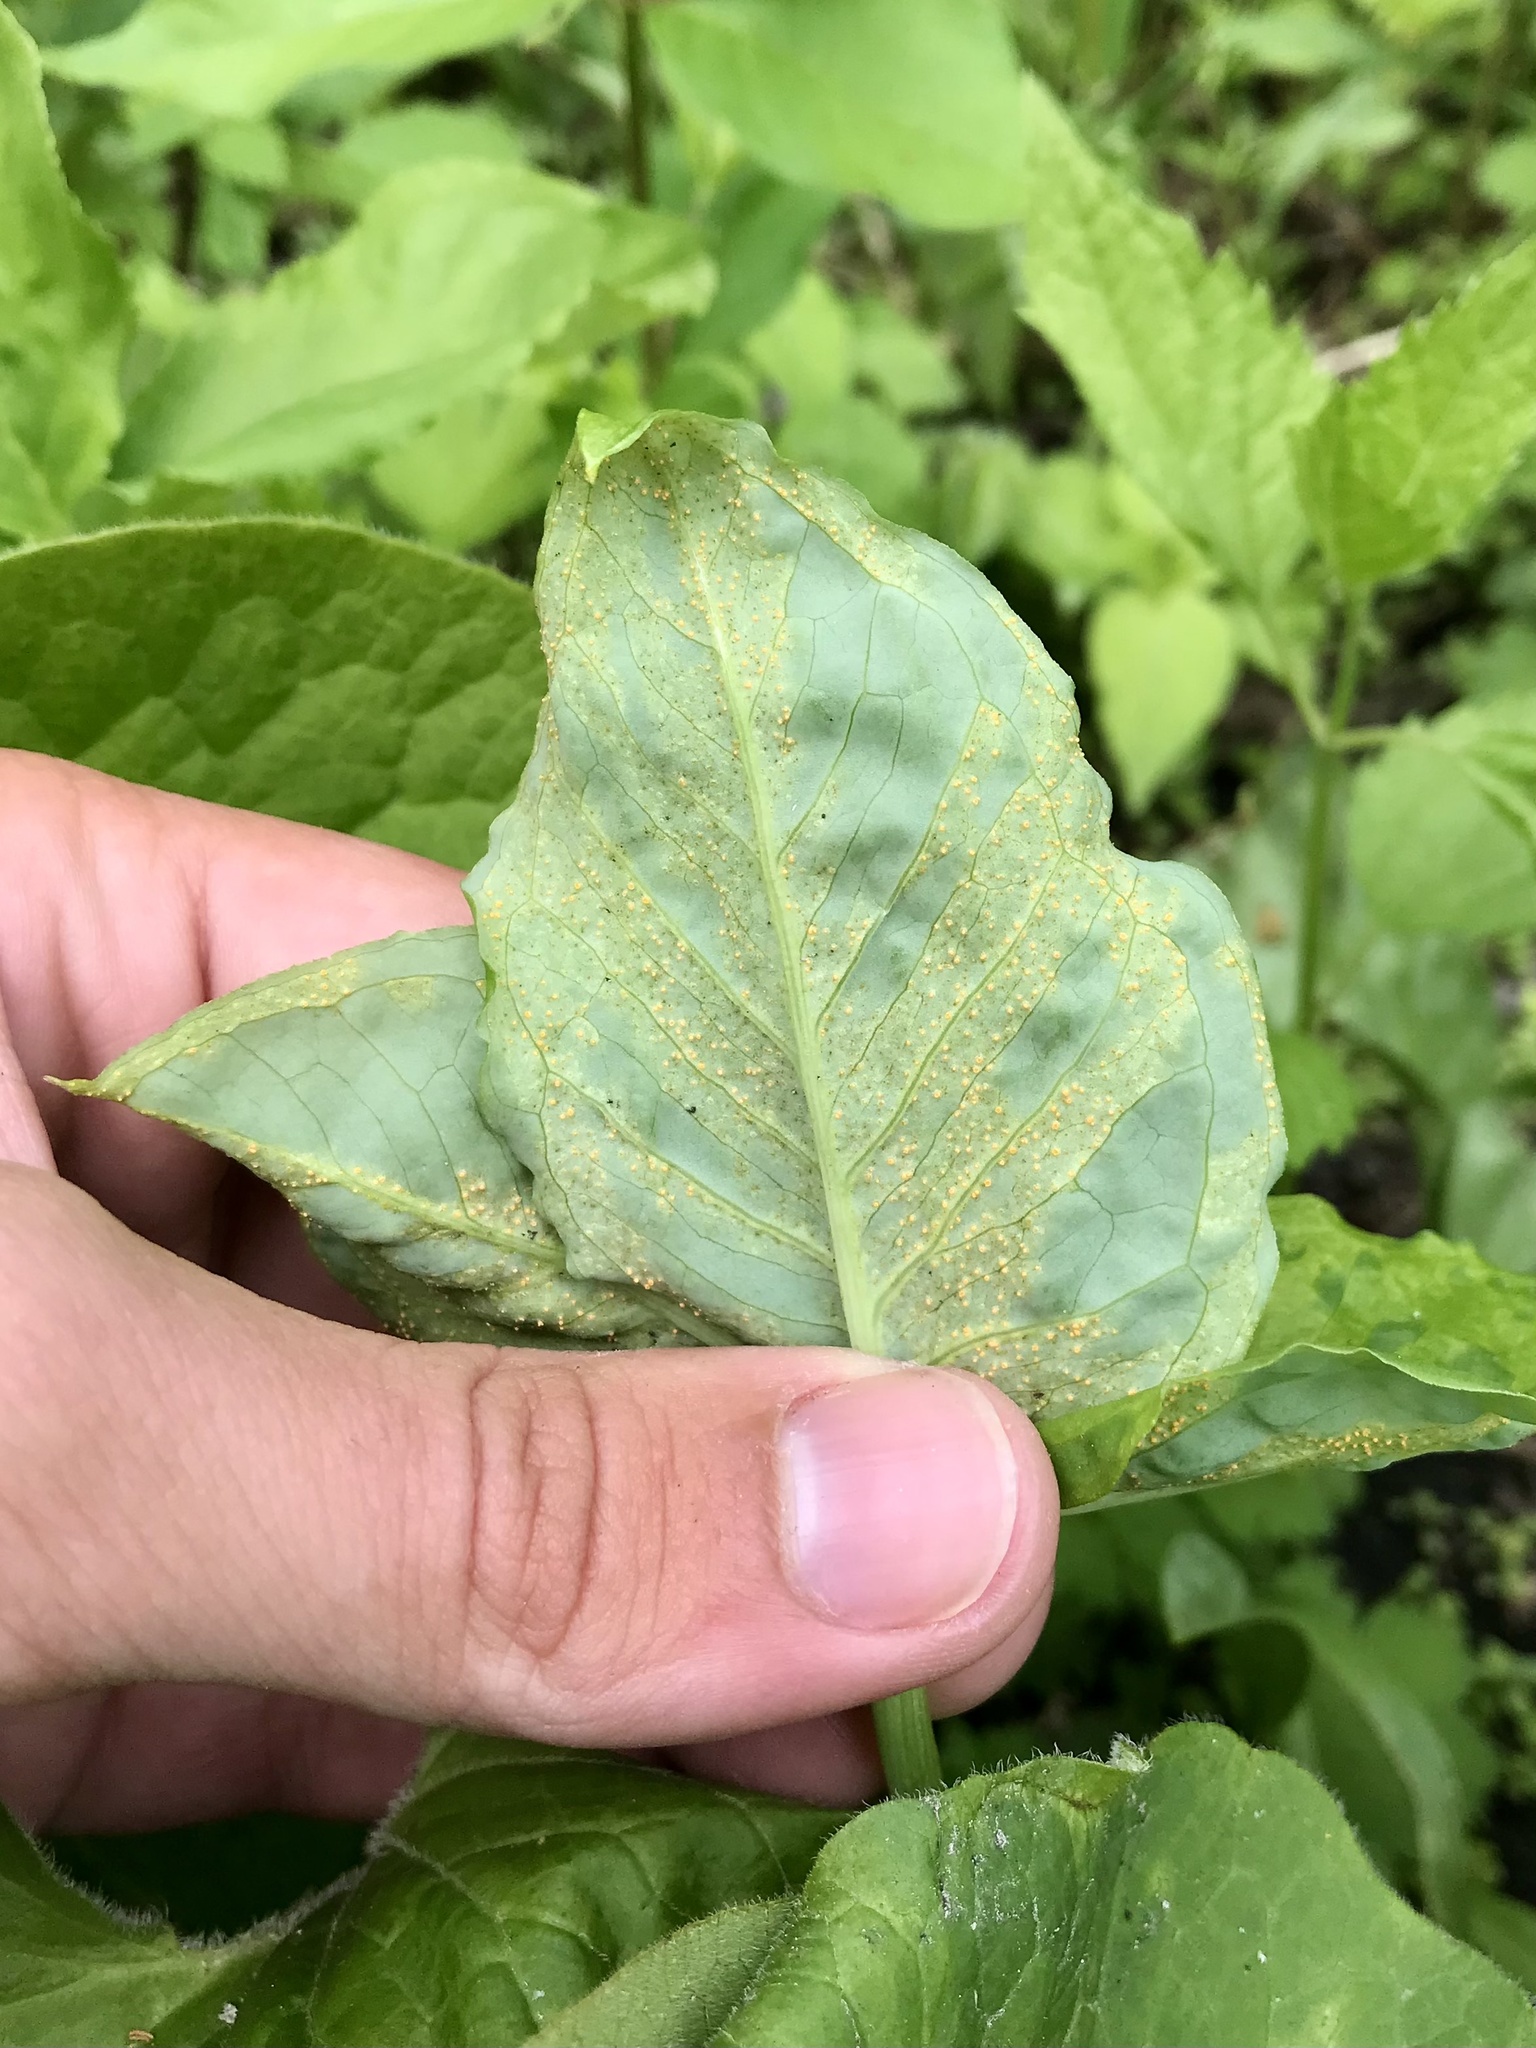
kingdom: Fungi
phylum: Basidiomycota
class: Pucciniomycetes
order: Pucciniales
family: Pucciniaceae
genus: Uromyces
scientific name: Uromyces ari-triphylli
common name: Jack-in-the-pulpit rust
